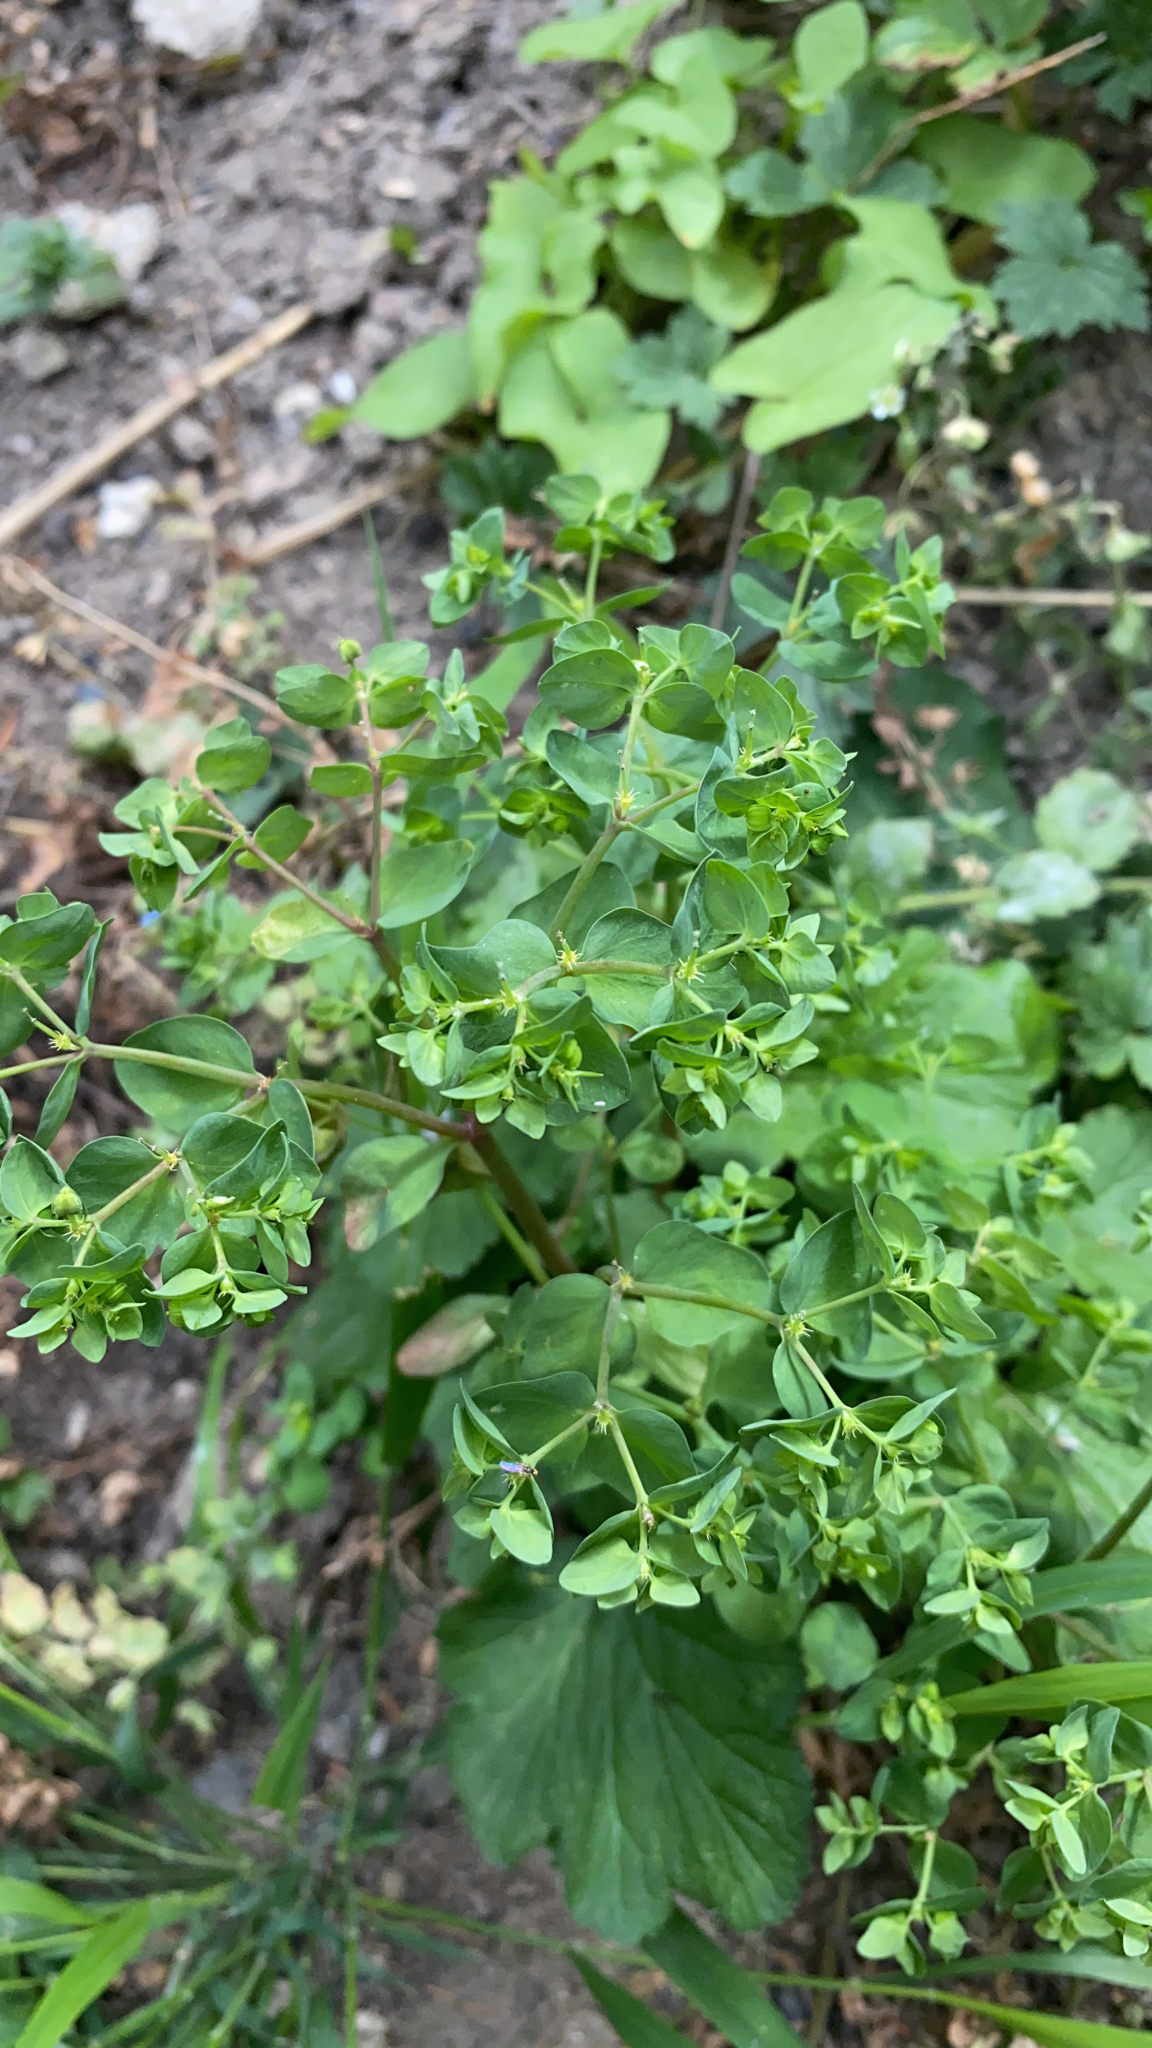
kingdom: Plantae
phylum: Tracheophyta
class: Magnoliopsida
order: Malpighiales
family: Euphorbiaceae
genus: Euphorbia
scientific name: Euphorbia peplus
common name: Petty spurge
